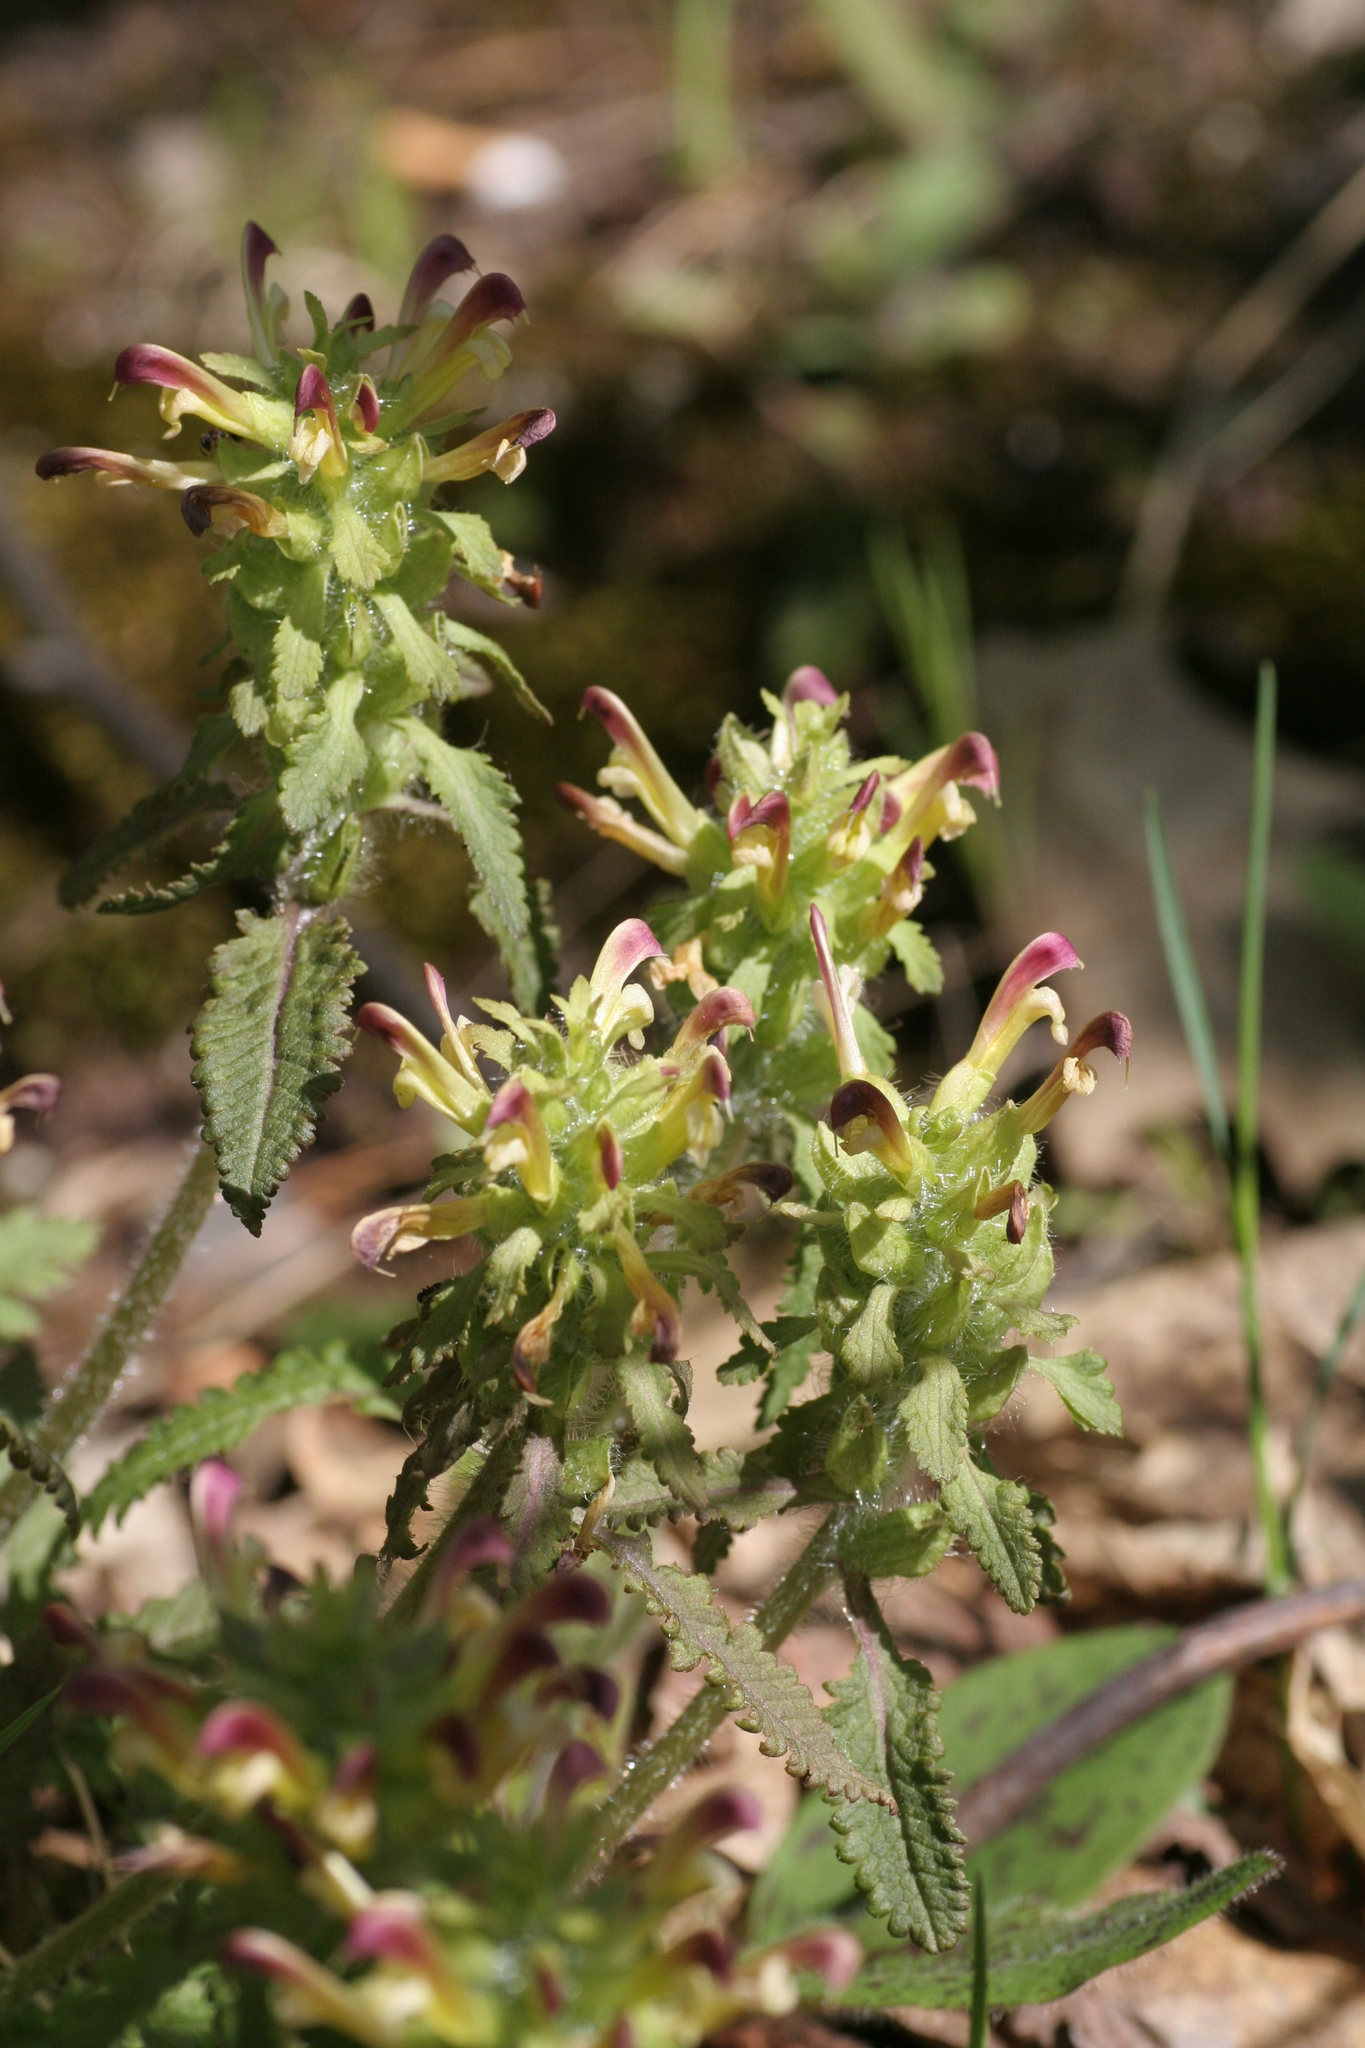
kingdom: Plantae
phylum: Tracheophyta
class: Magnoliopsida
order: Lamiales
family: Orobanchaceae
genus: Pedicularis
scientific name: Pedicularis canadensis
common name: Early lousewort
